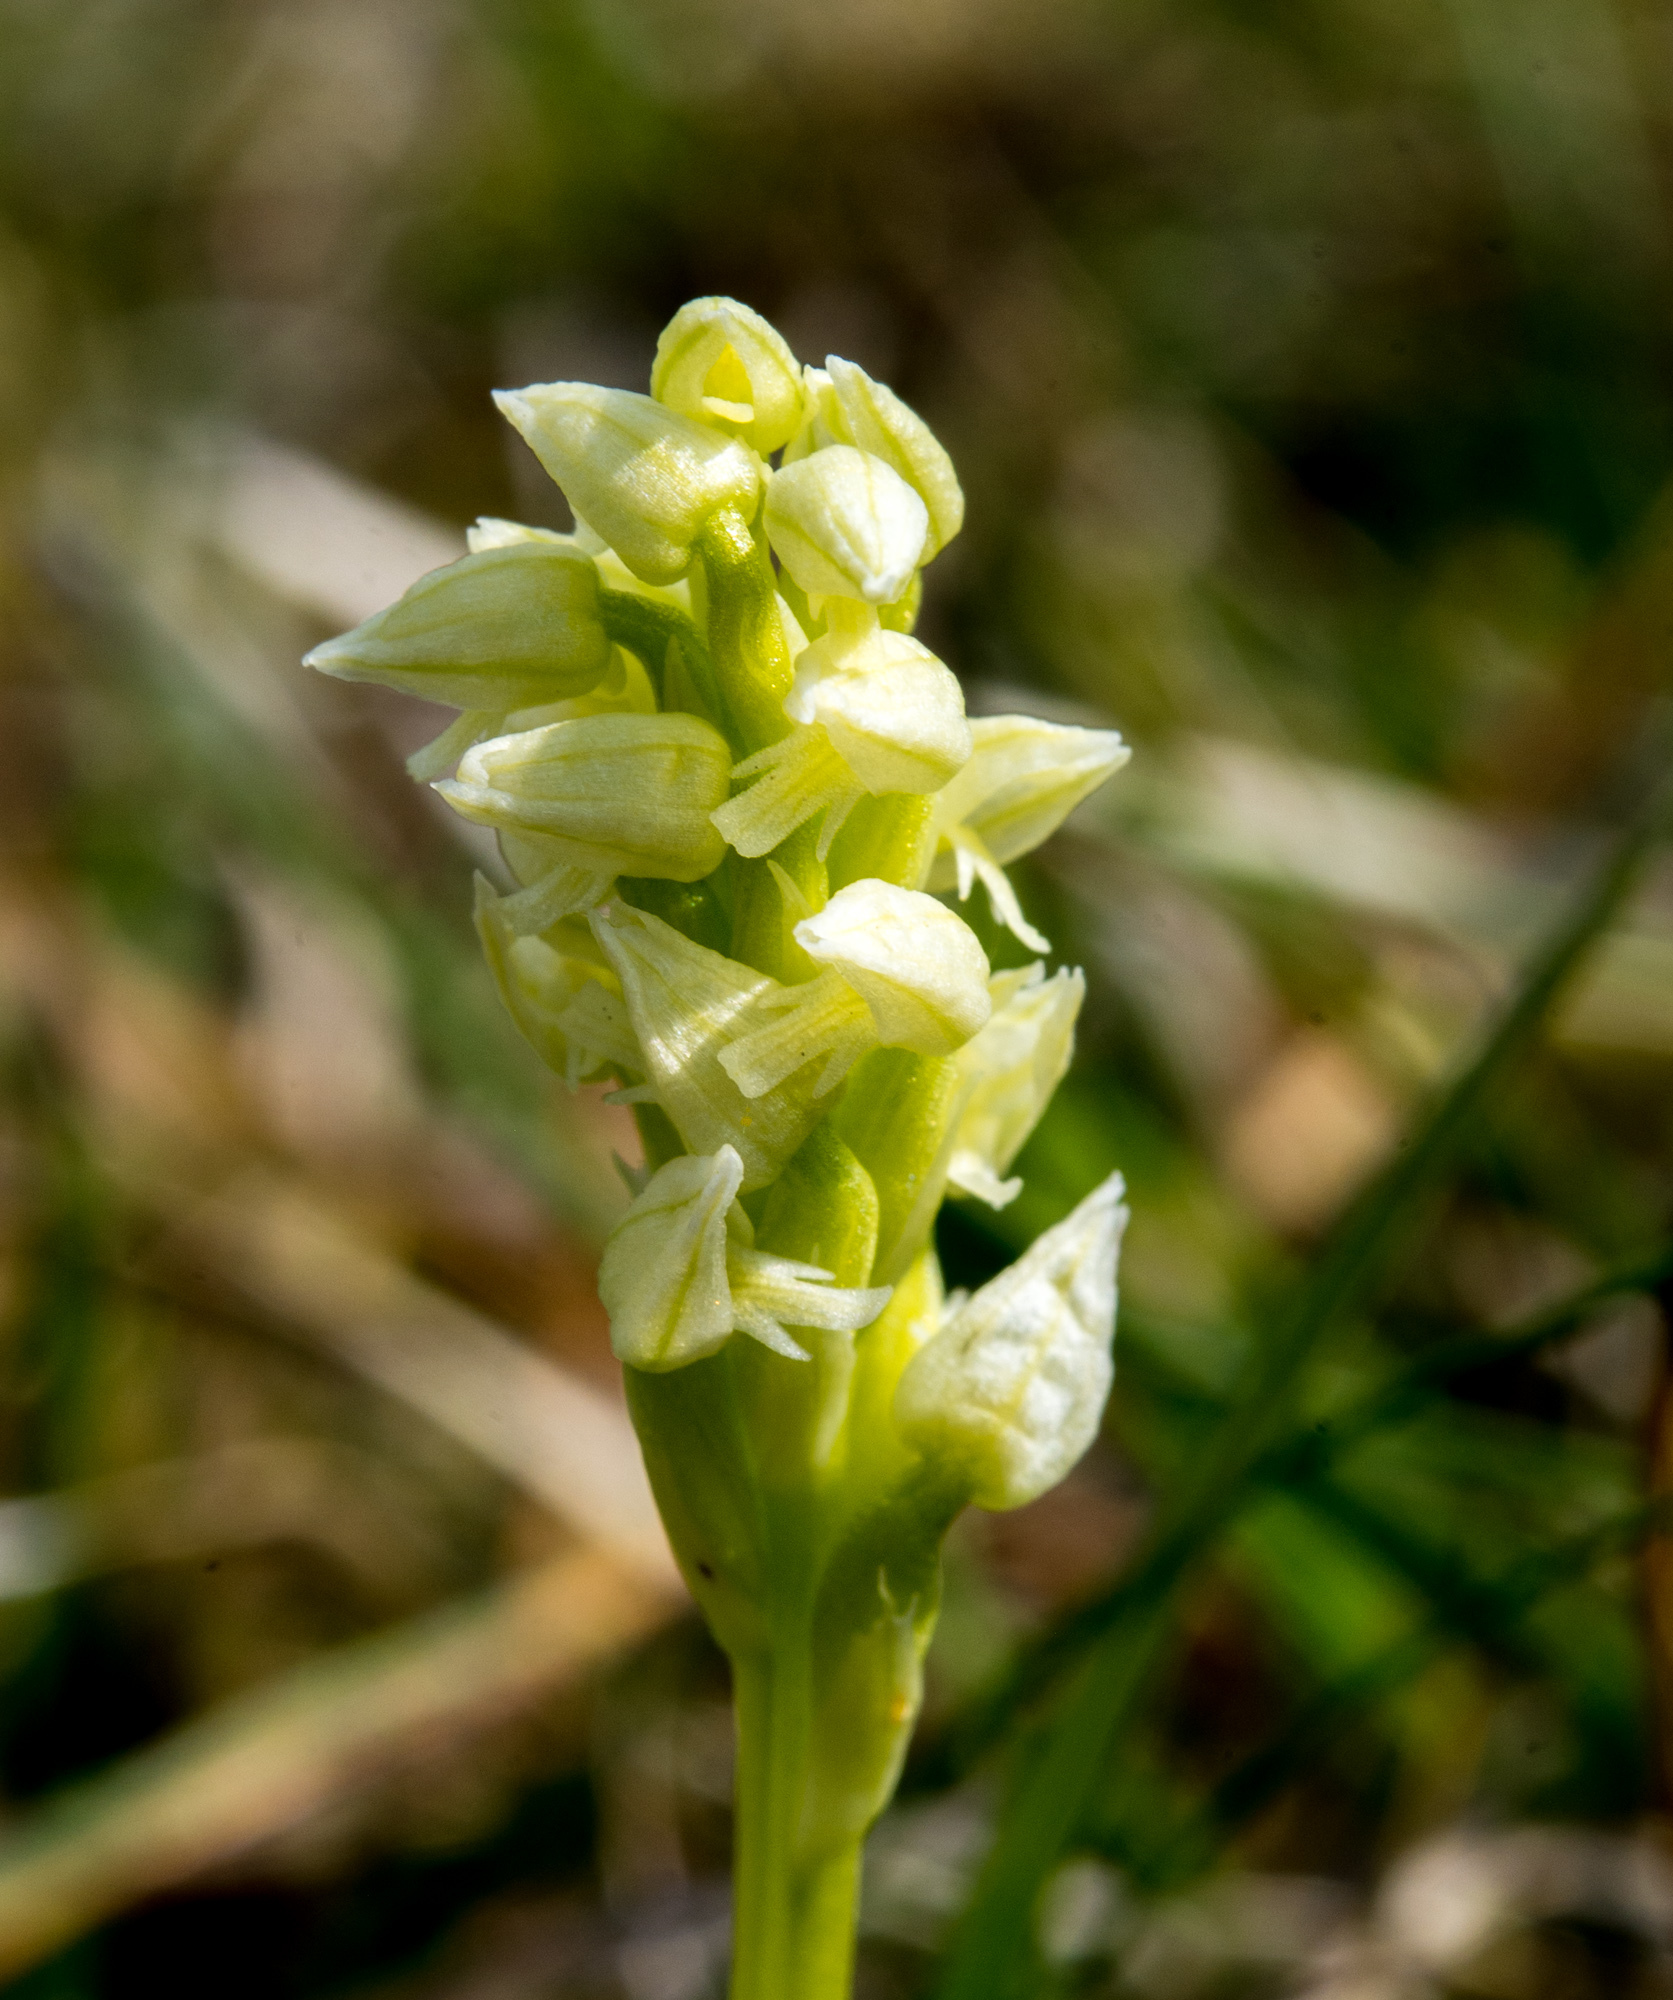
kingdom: Plantae
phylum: Tracheophyta
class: Liliopsida
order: Asparagales
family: Orchidaceae
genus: Neotinea
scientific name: Neotinea maculata
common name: Dense-flowered orchid
